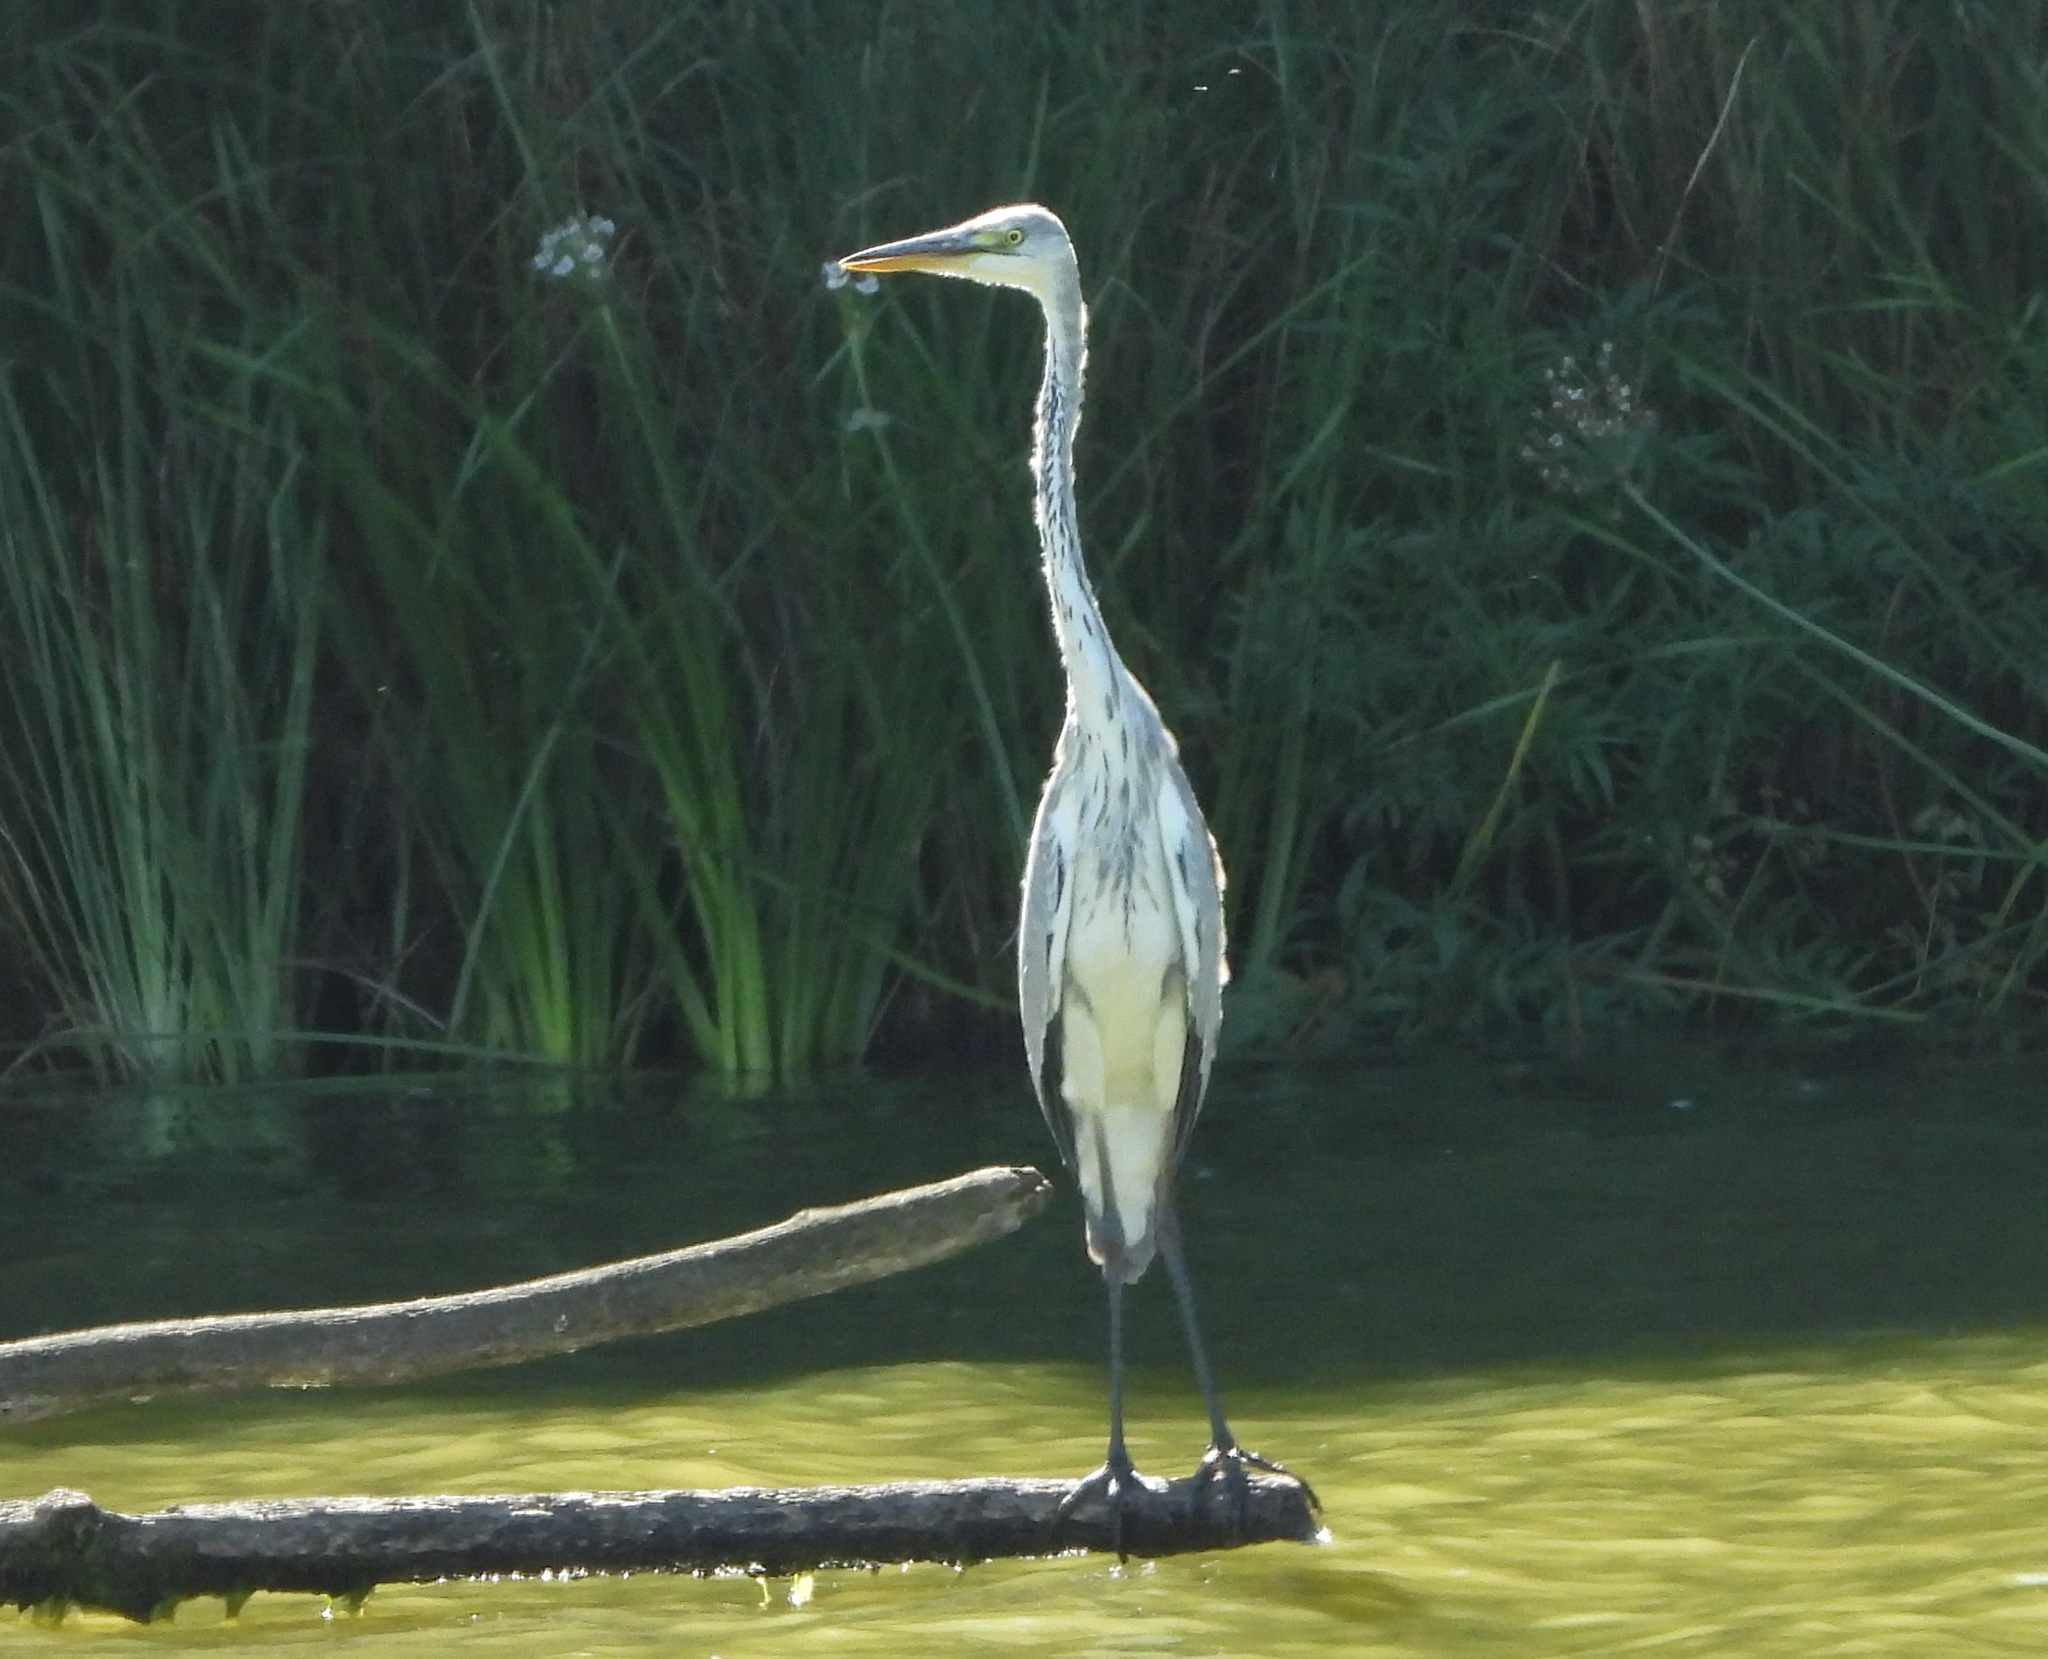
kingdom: Animalia
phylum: Chordata
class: Aves
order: Pelecaniformes
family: Ardeidae
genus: Ardea
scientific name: Ardea cinerea
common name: Grey heron
